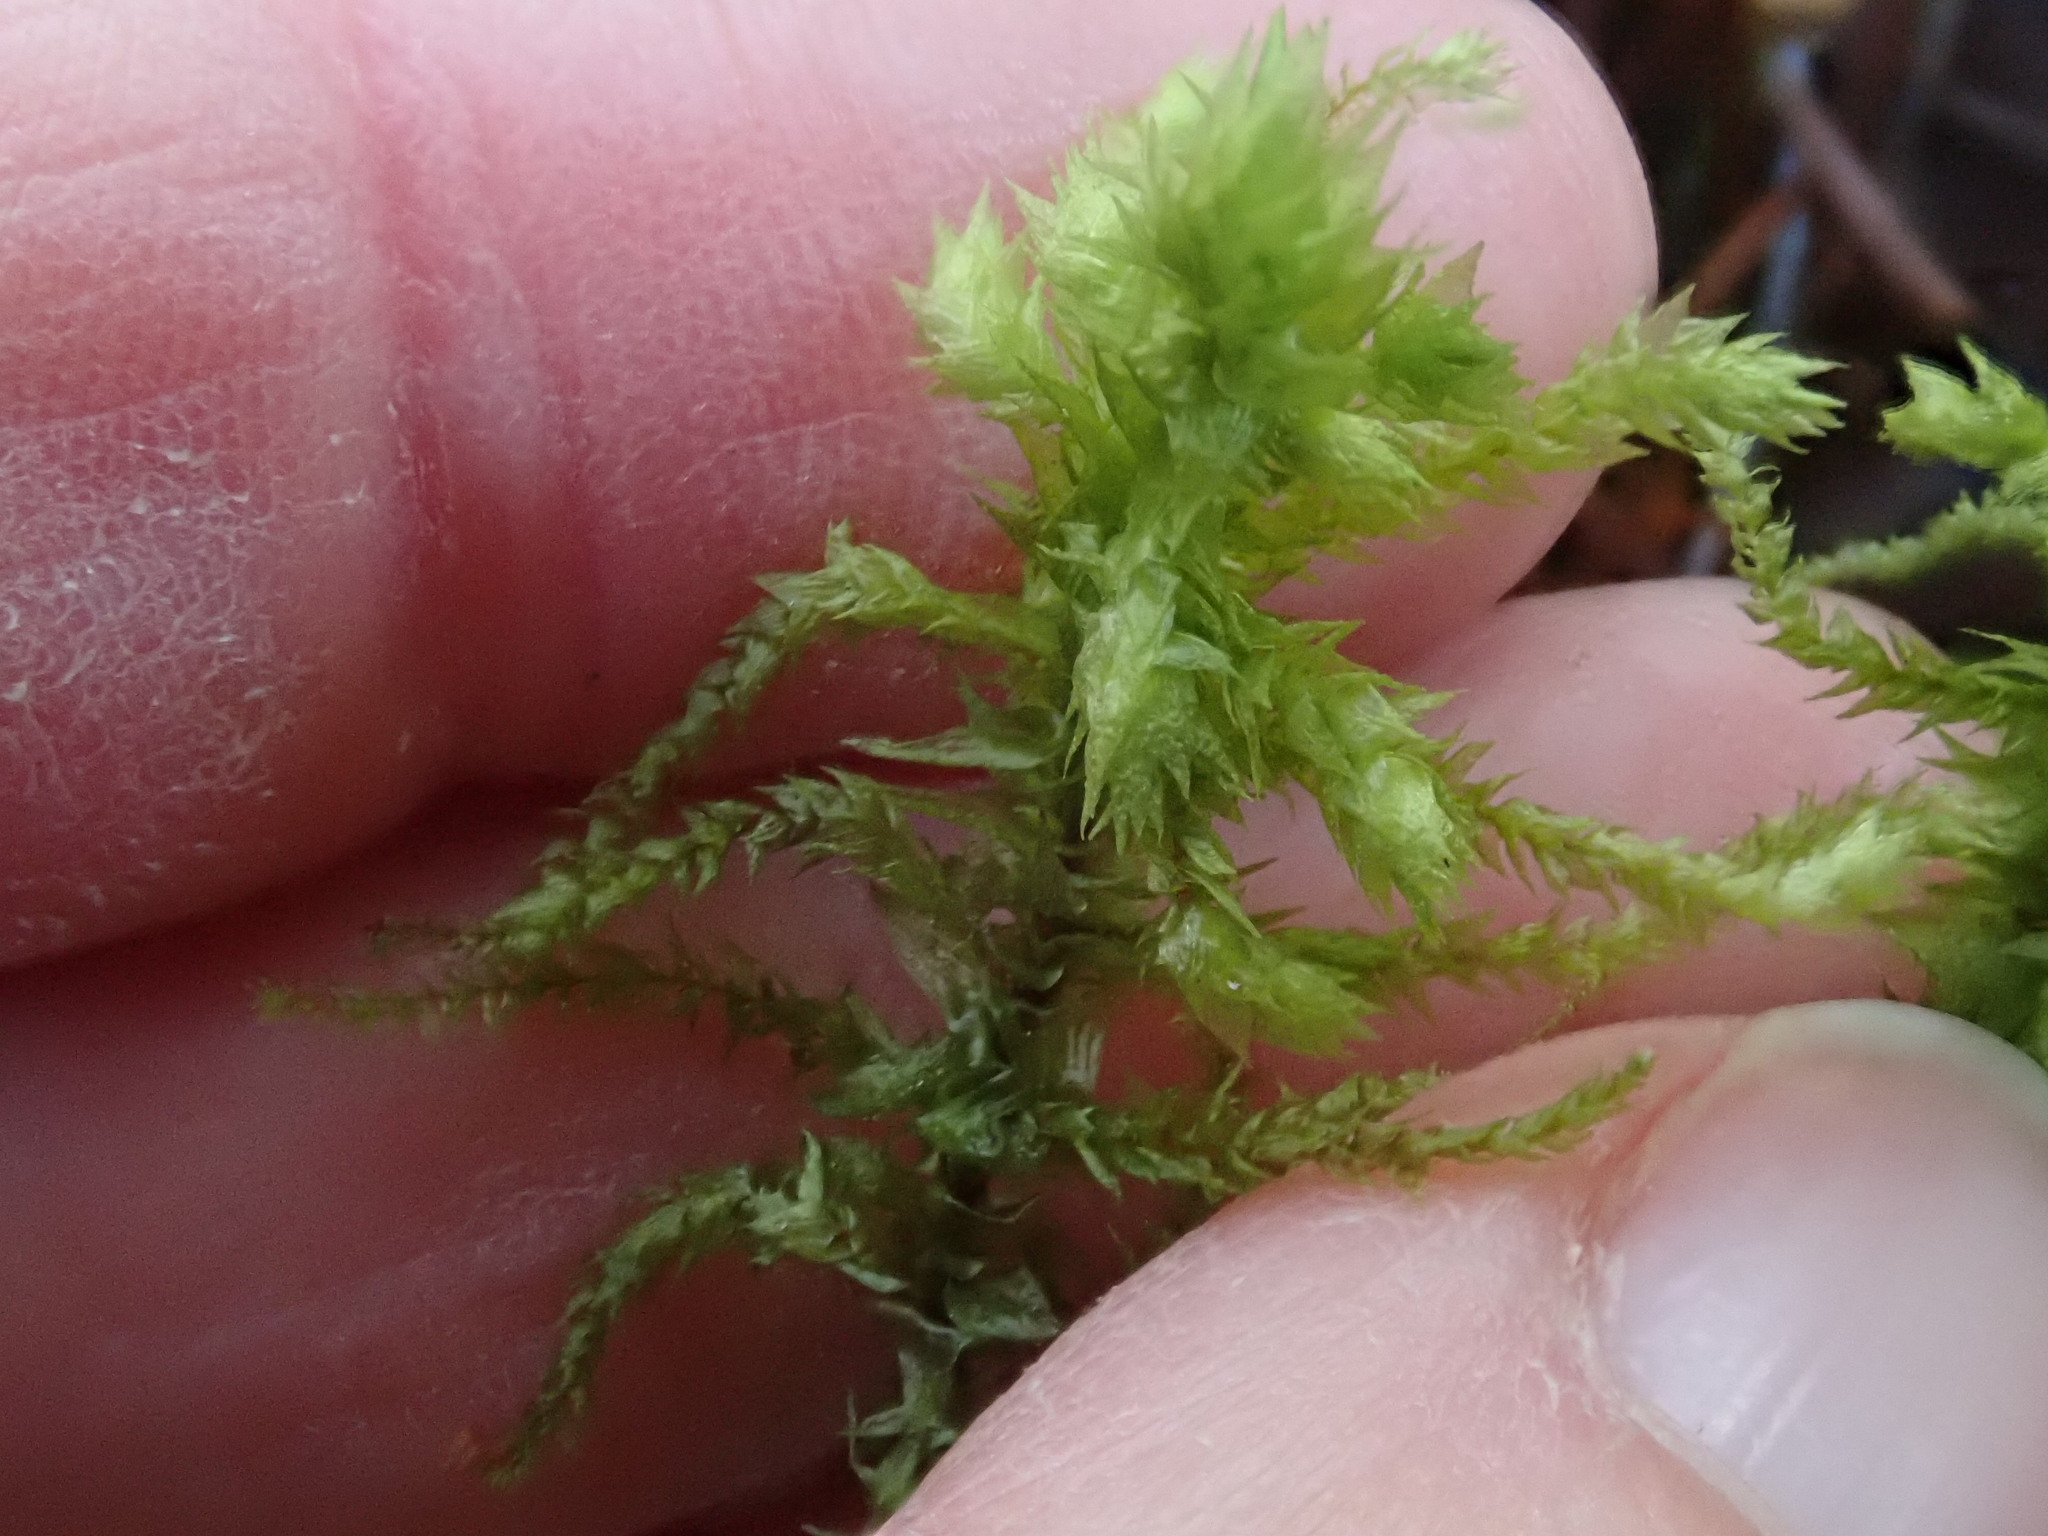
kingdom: Plantae
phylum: Bryophyta
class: Bryopsida
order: Hypnales
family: Hylocomiaceae
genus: Hylocomiadelphus
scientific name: Hylocomiadelphus triquetrus
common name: Rough goose neck moss
